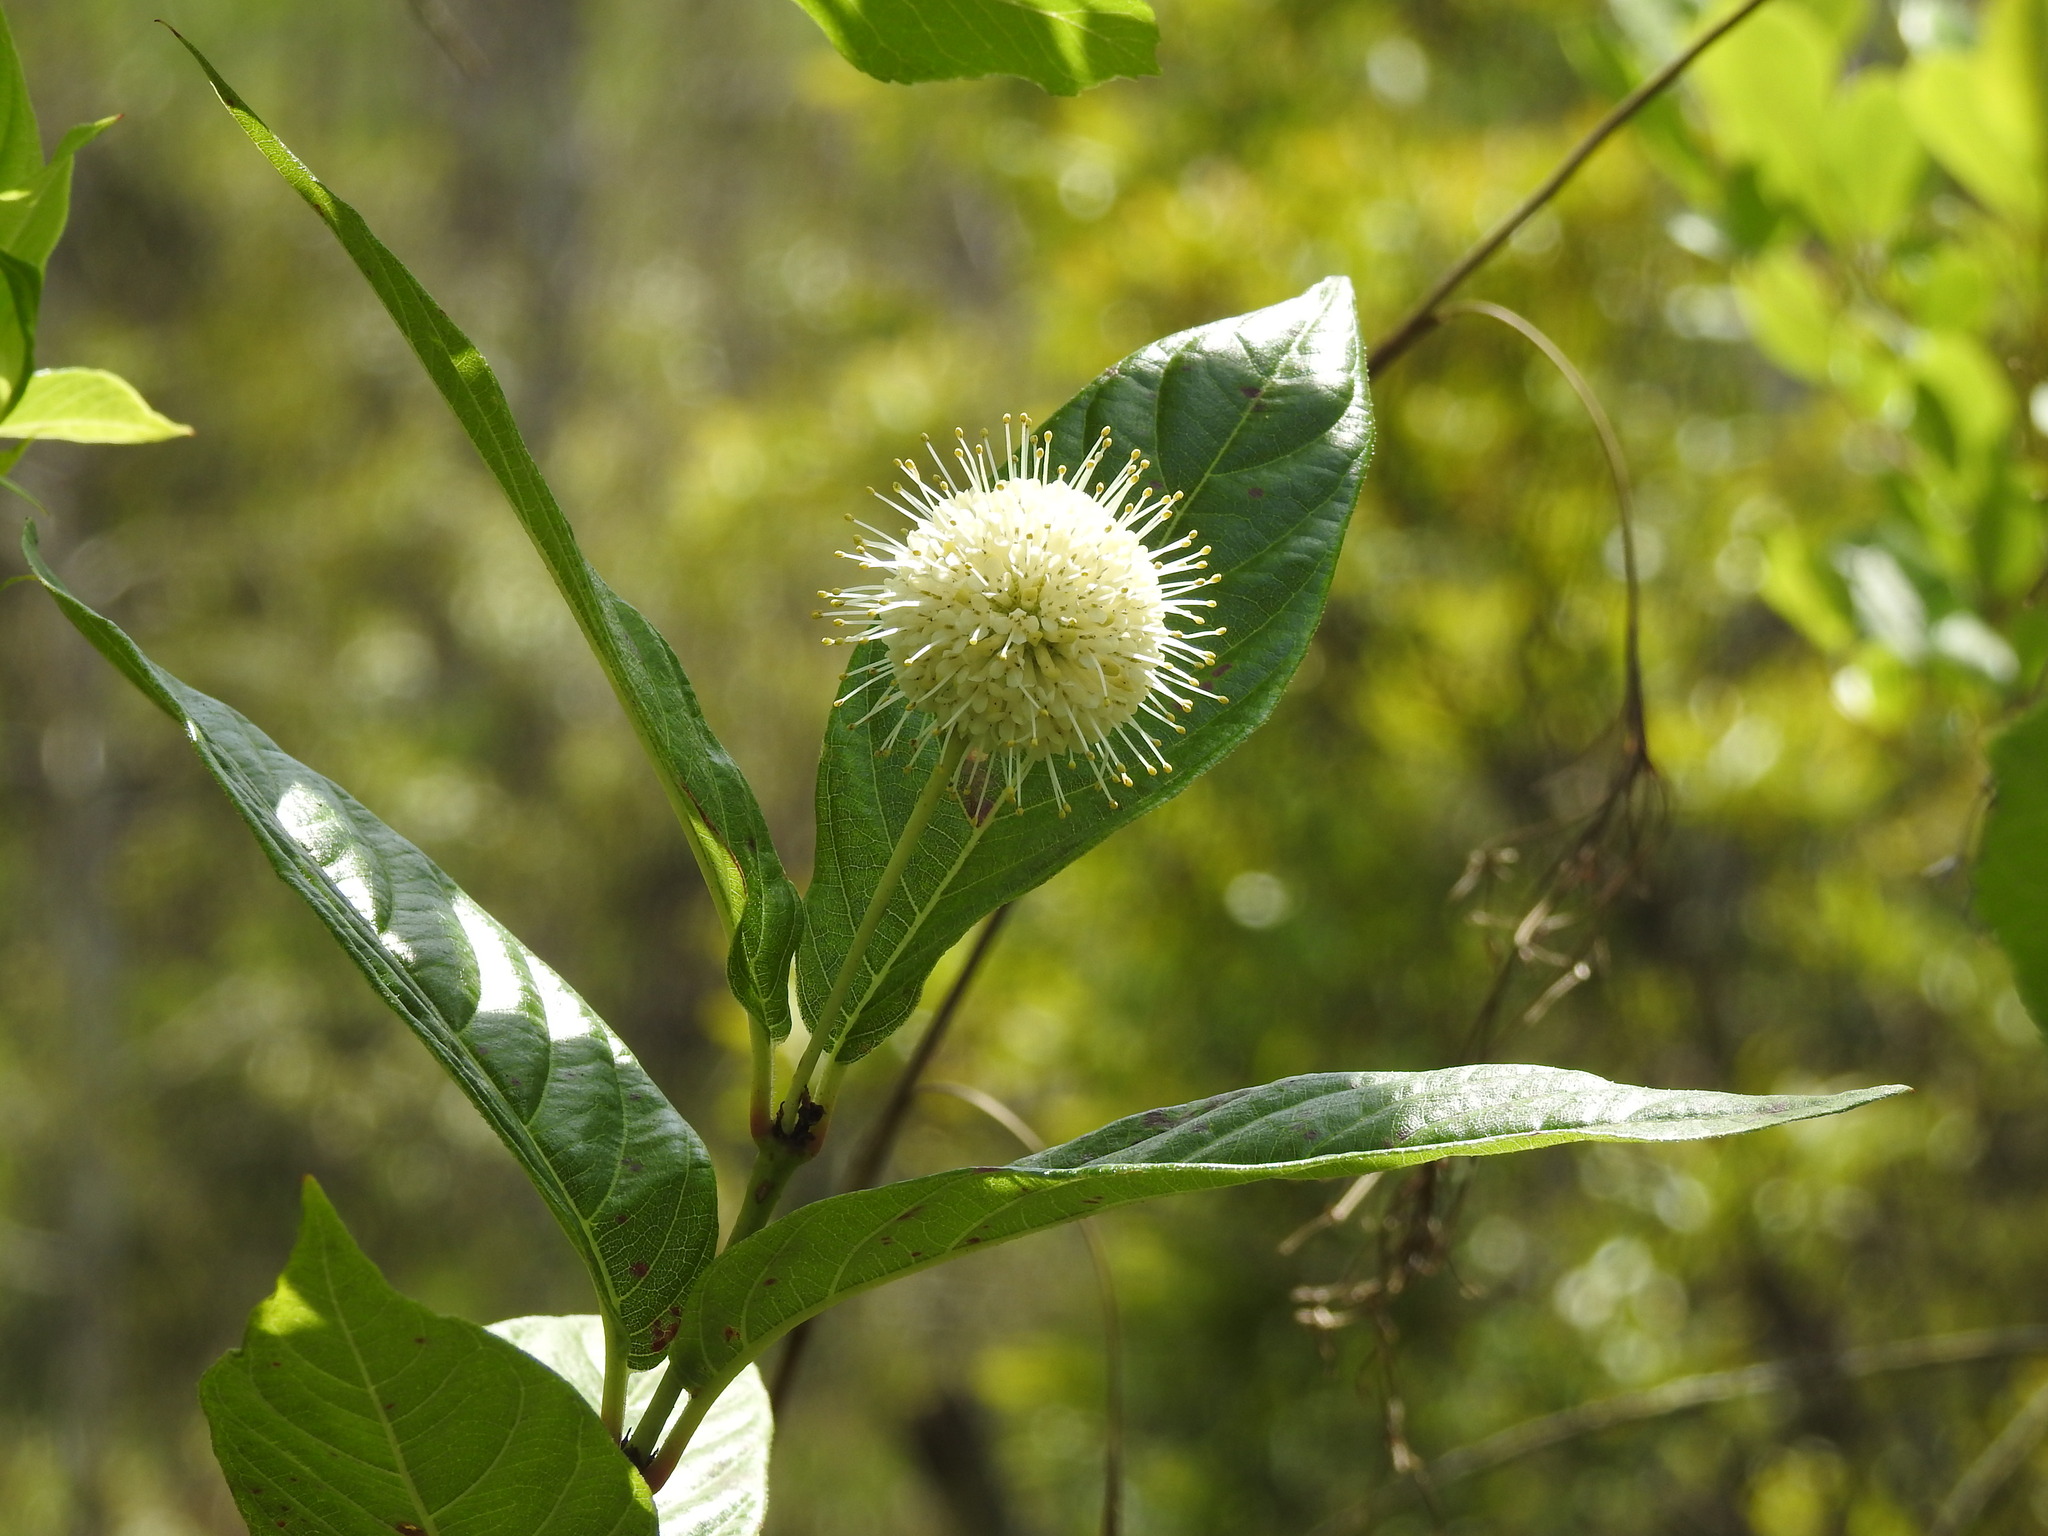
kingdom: Plantae
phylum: Tracheophyta
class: Magnoliopsida
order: Gentianales
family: Rubiaceae
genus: Cephalanthus
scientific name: Cephalanthus occidentalis
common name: Button-willow
